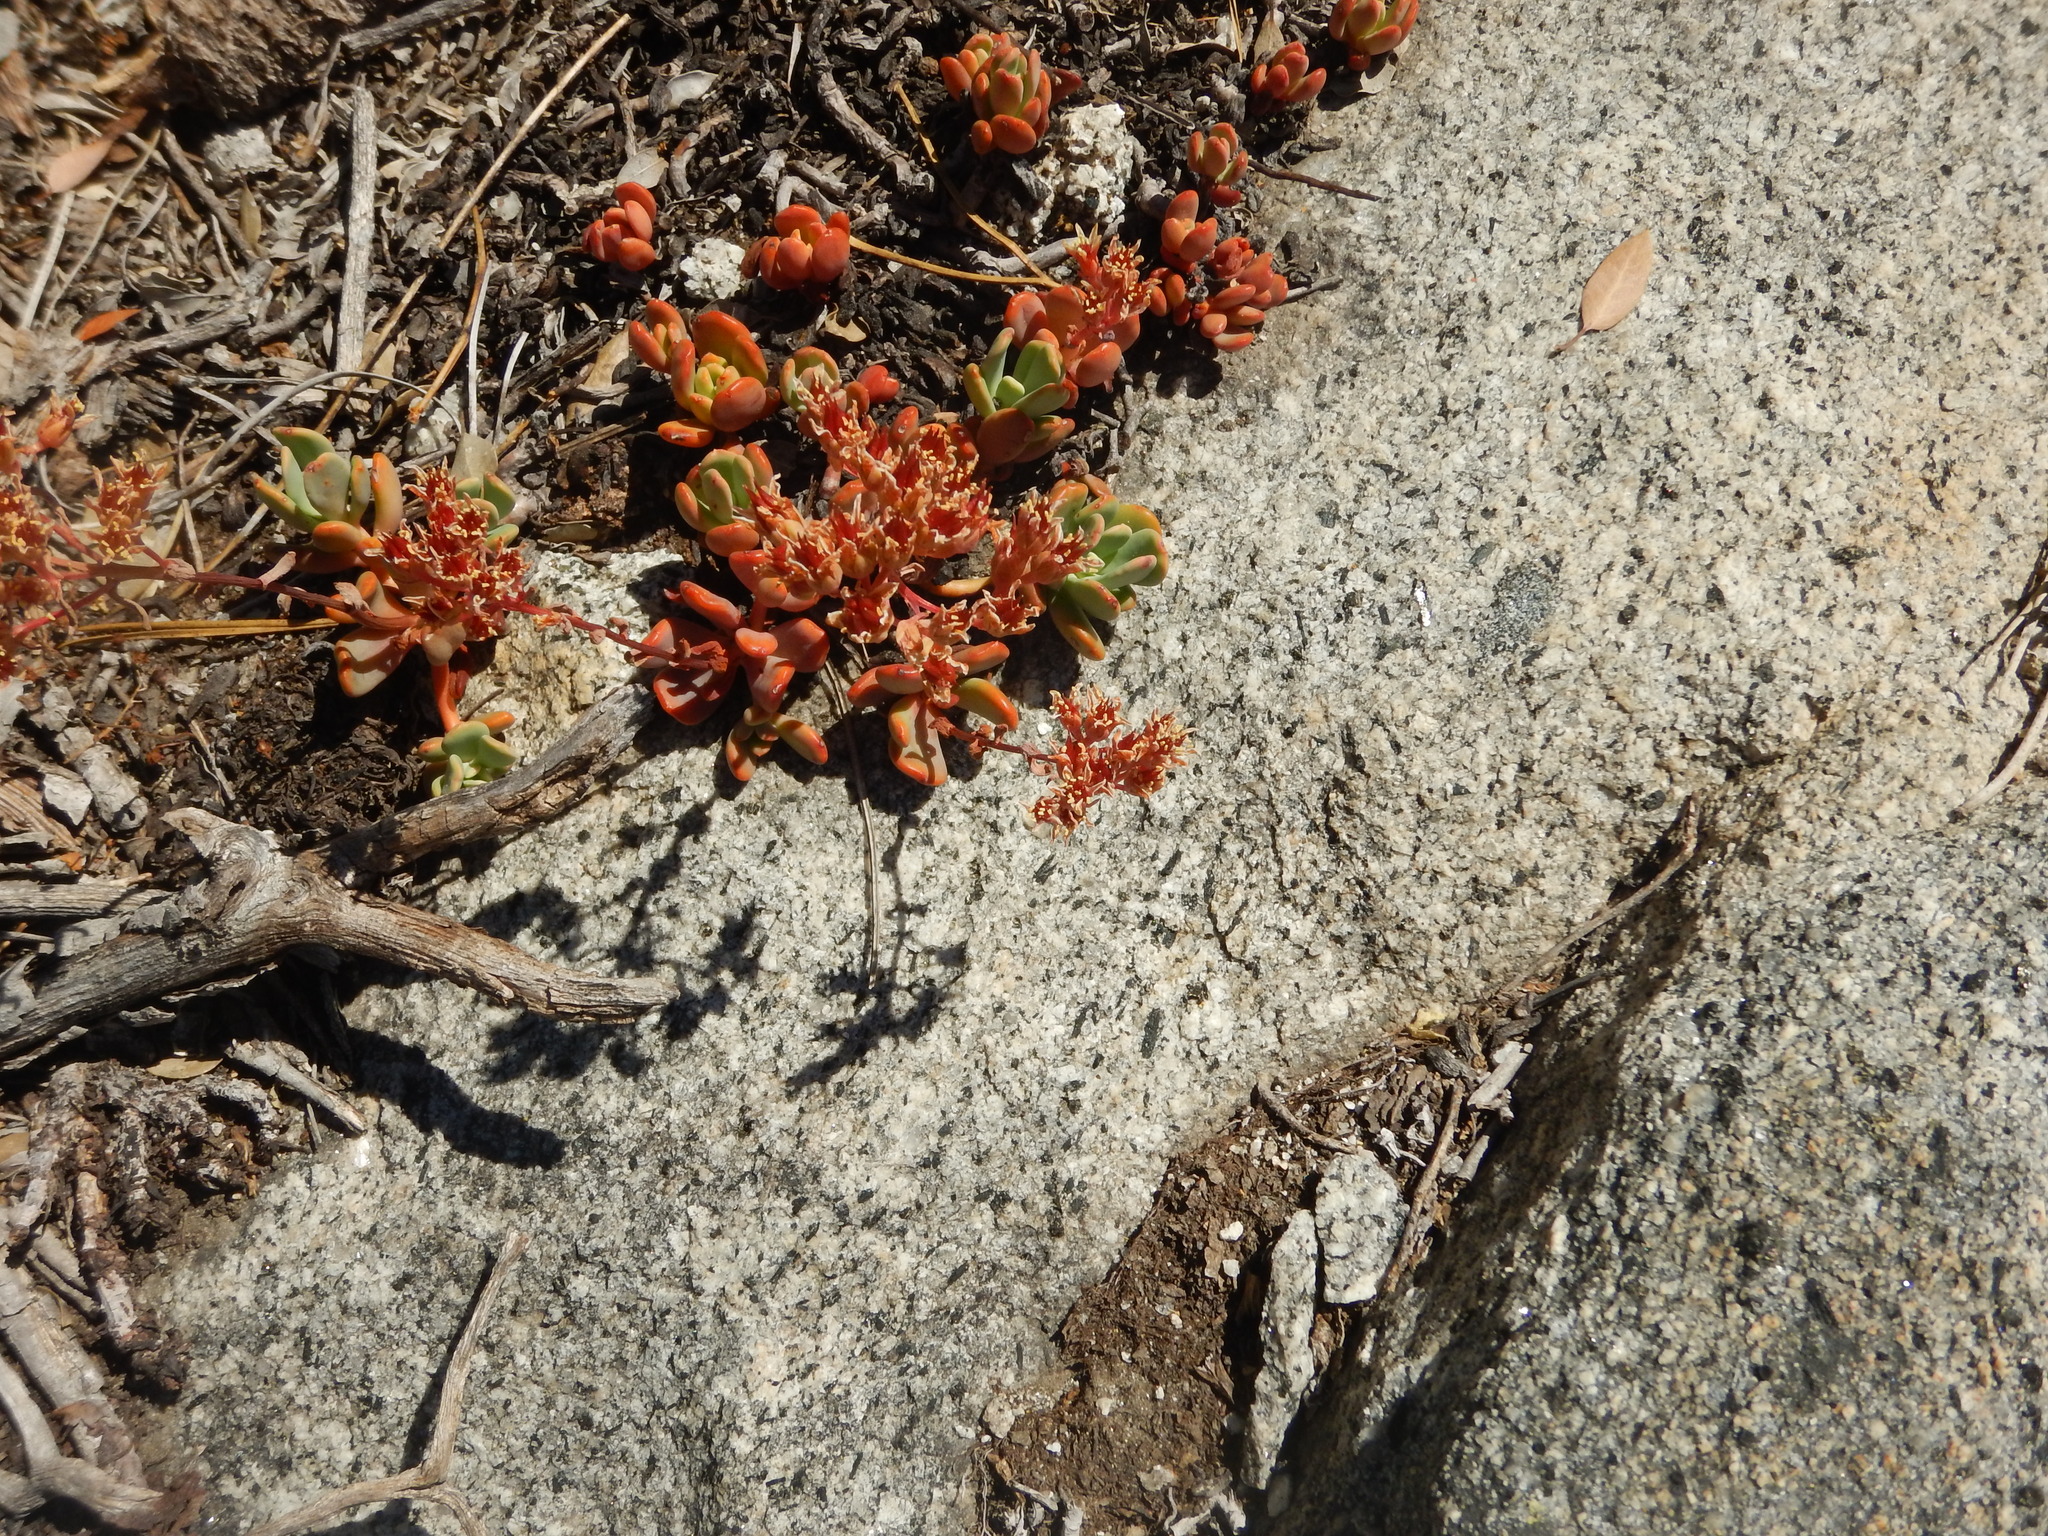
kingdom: Plantae
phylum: Tracheophyta
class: Magnoliopsida
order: Saxifragales
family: Crassulaceae
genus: Sedum
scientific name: Sedum obtusatum
